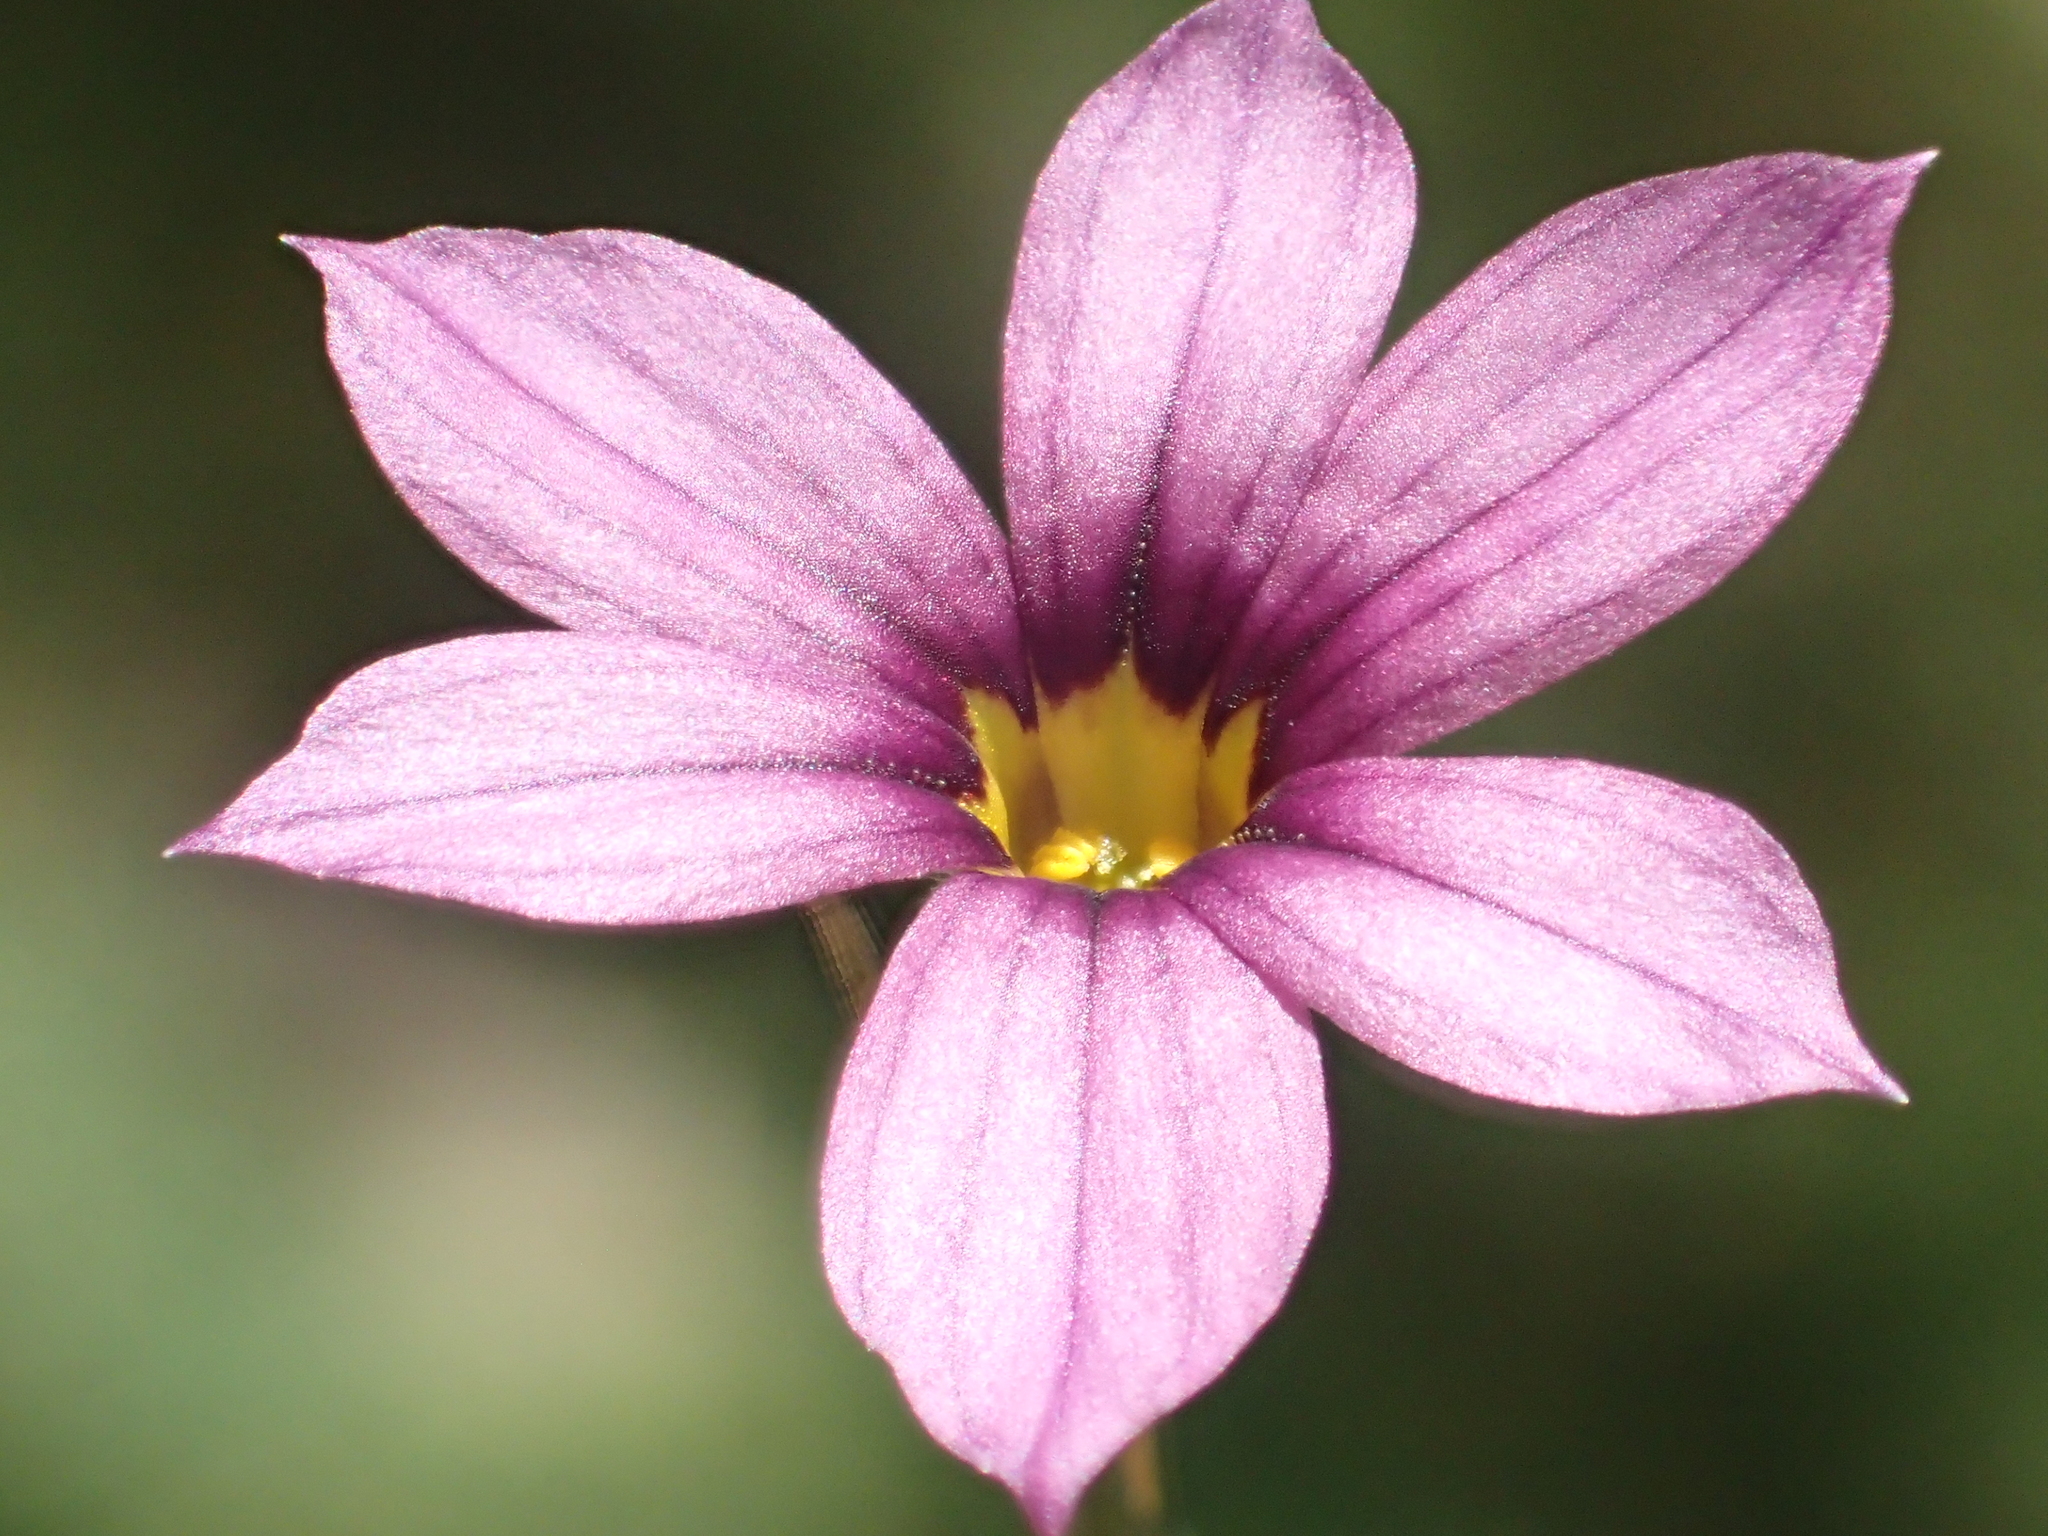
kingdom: Plantae
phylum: Tracheophyta
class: Liliopsida
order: Asparagales
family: Iridaceae
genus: Sisyrinchium
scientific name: Sisyrinchium micranthum
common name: Bermuda pigroot
